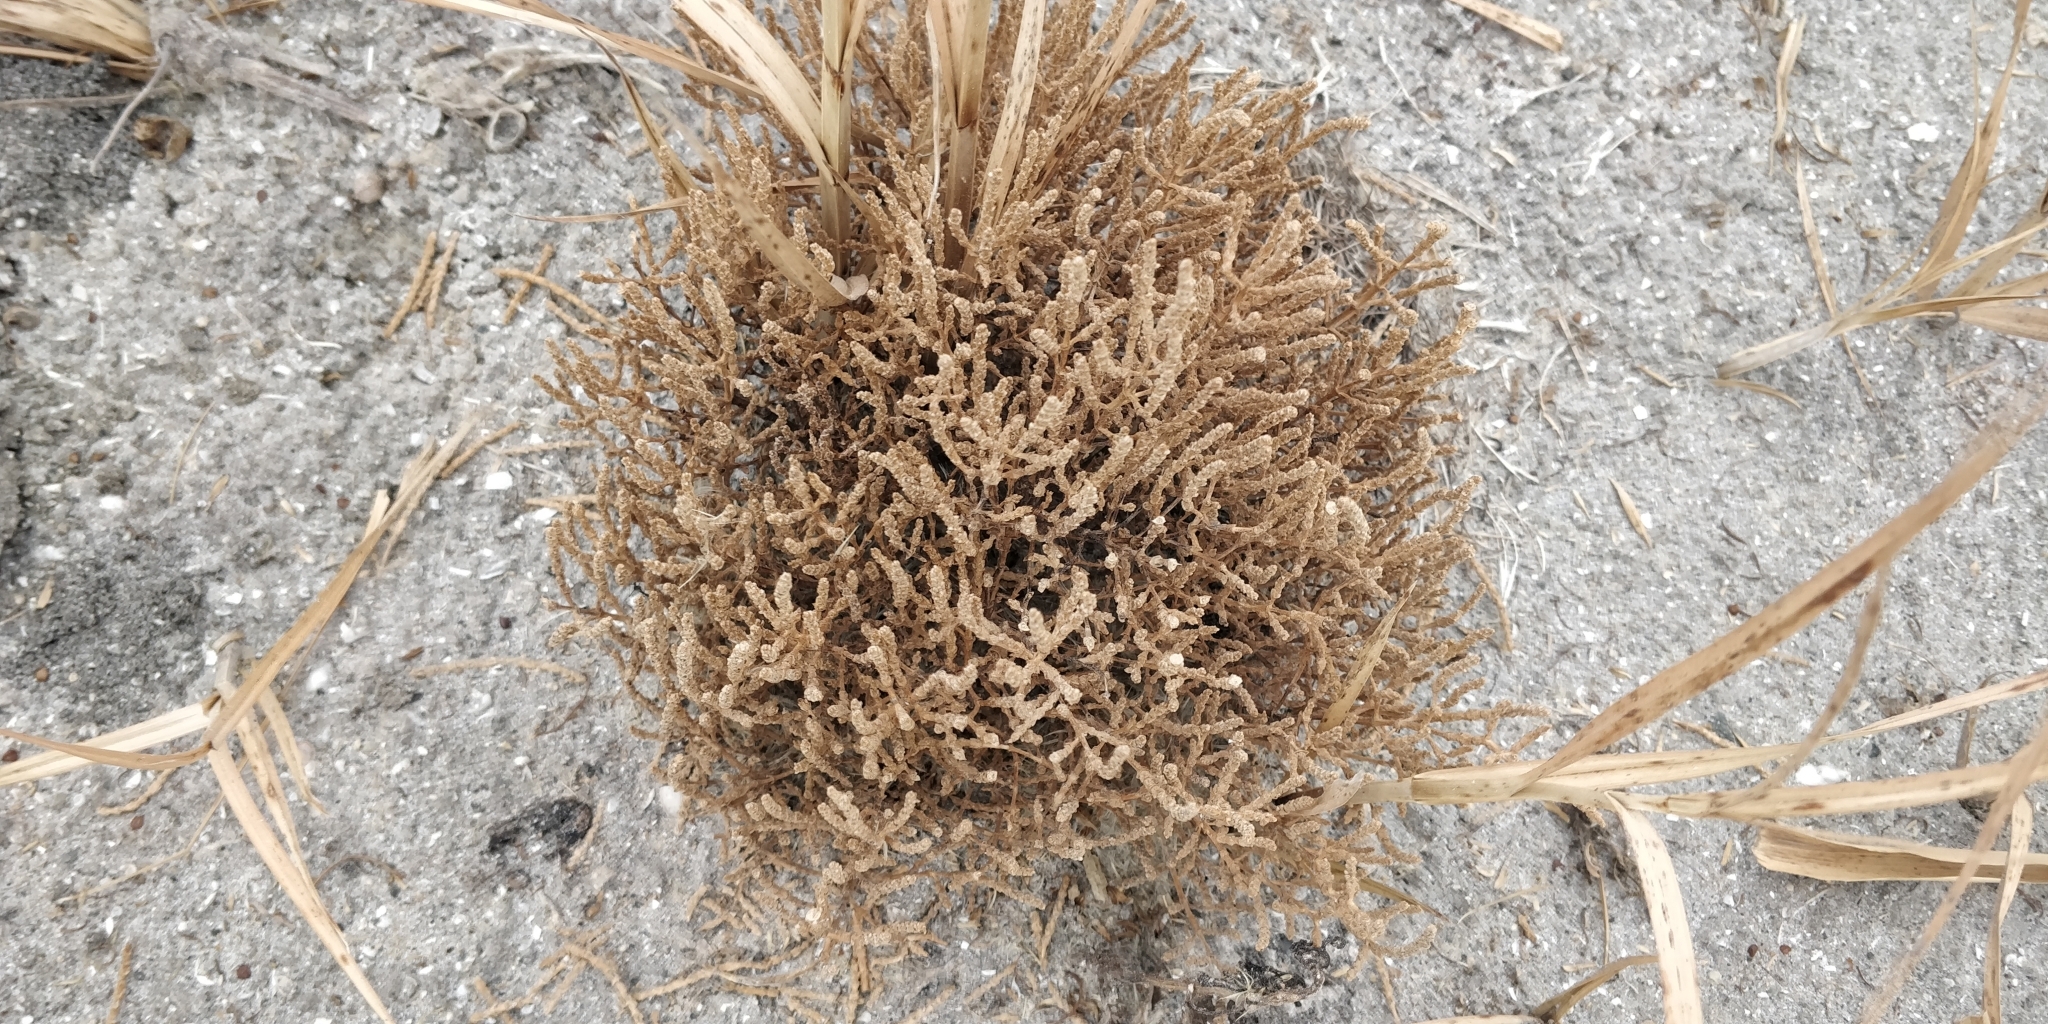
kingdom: Plantae
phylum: Tracheophyta
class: Magnoliopsida
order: Caryophyllales
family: Amaranthaceae
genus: Salicornia
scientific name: Salicornia rubra
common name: Red glasswort
